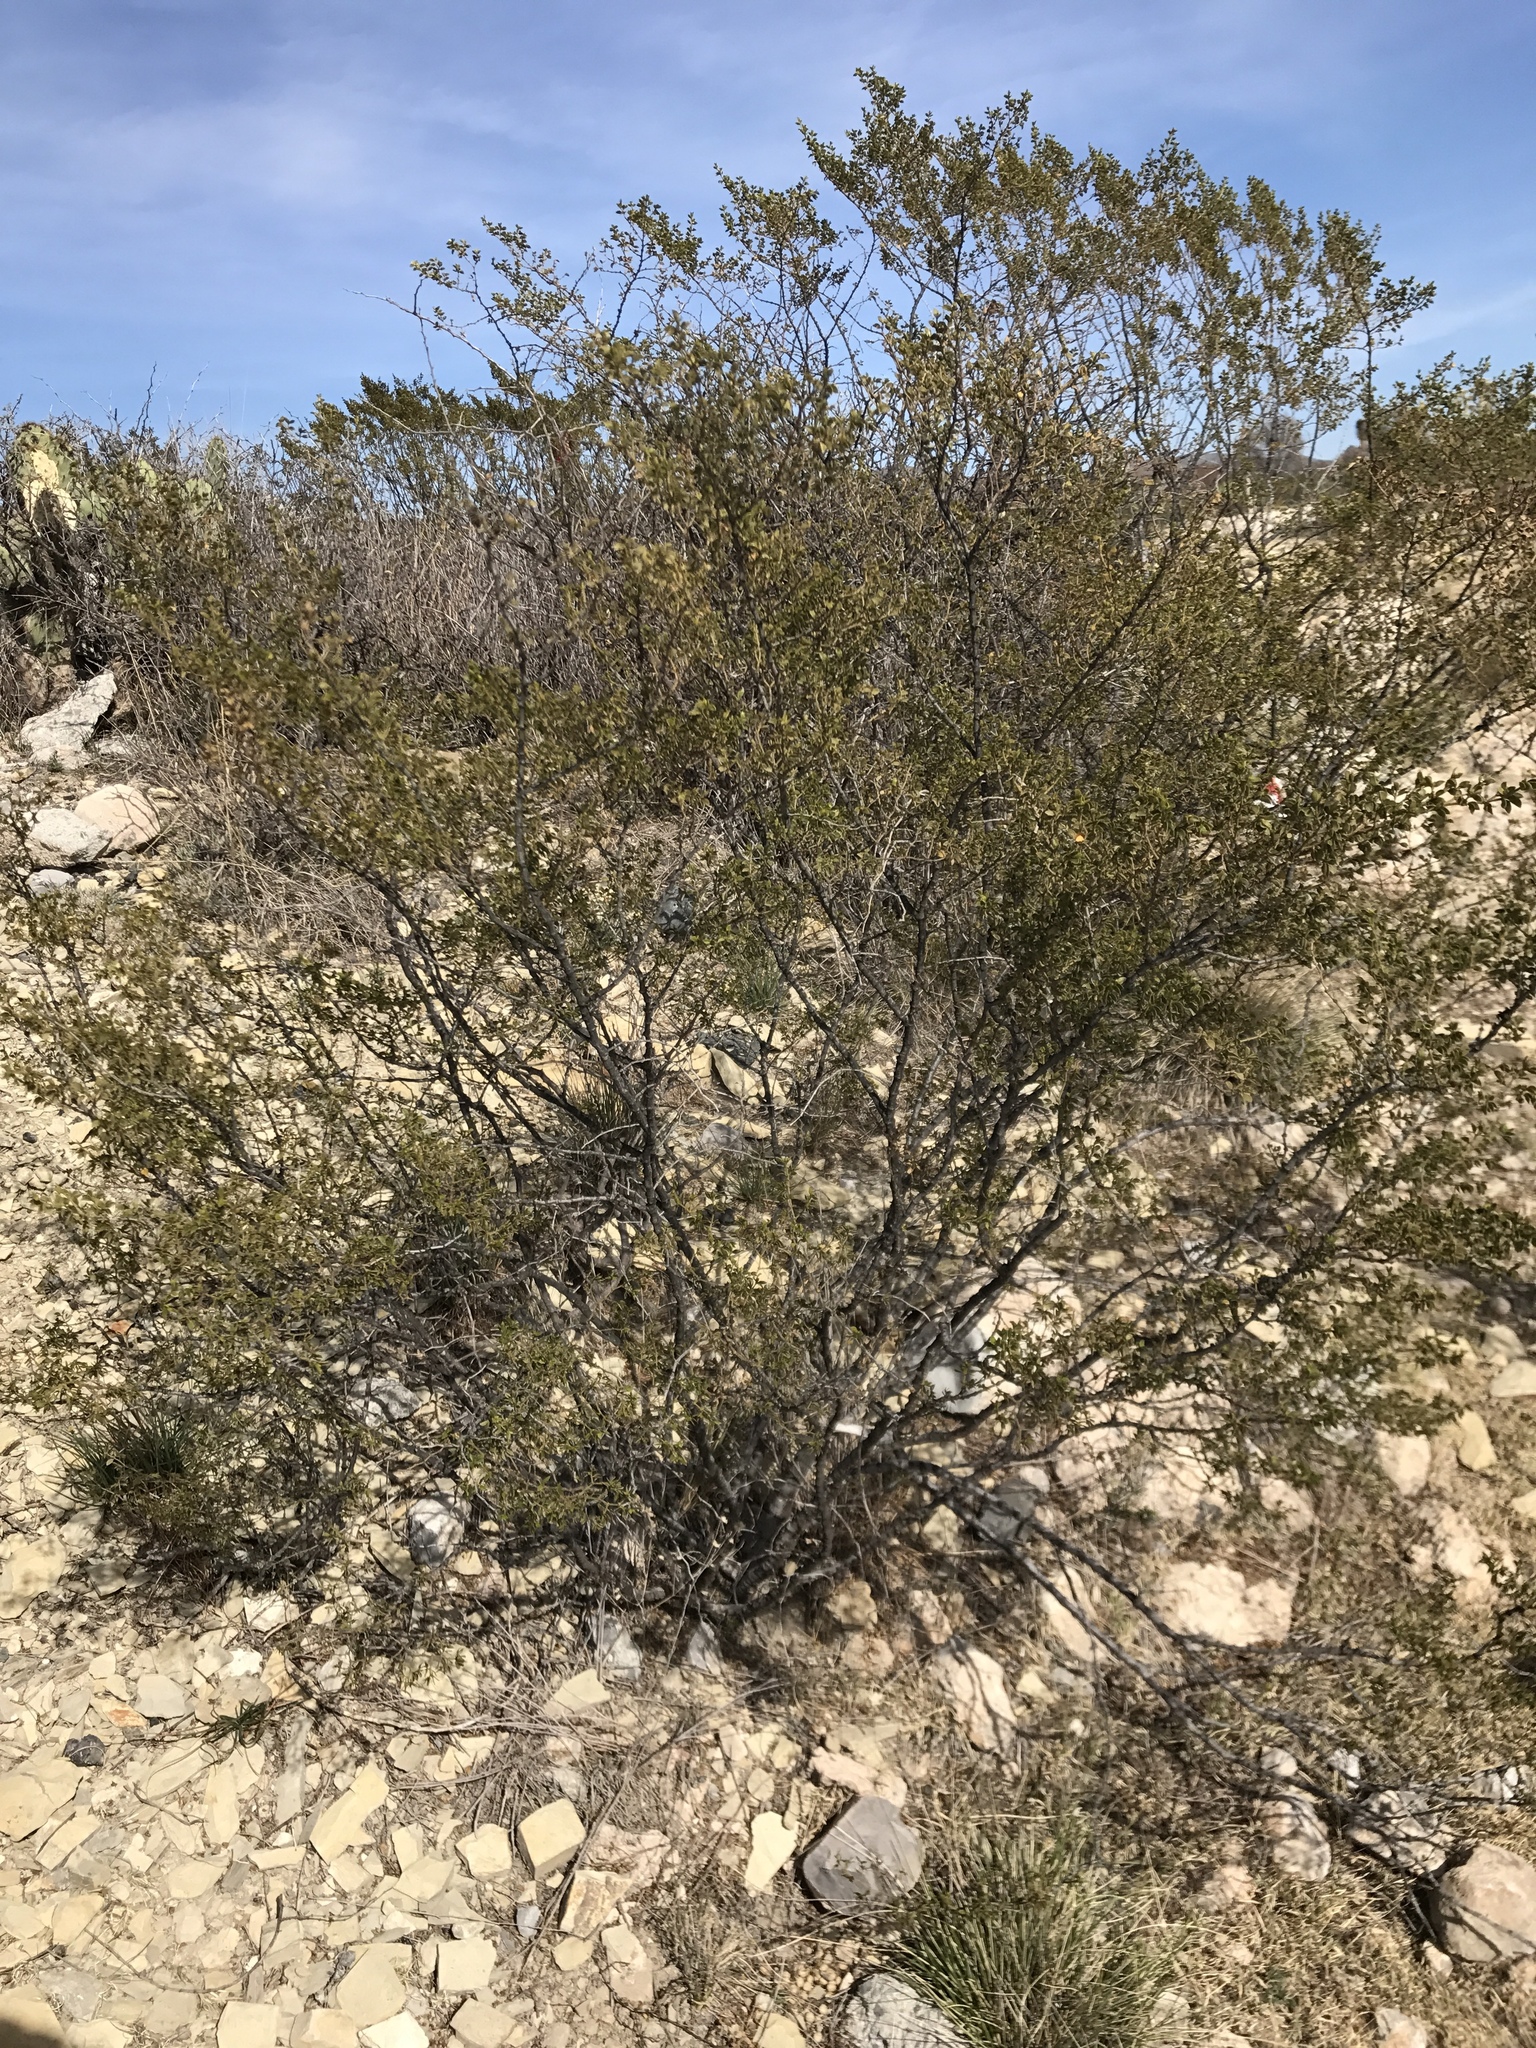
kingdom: Plantae
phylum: Tracheophyta
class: Magnoliopsida
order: Zygophyllales
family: Zygophyllaceae
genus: Larrea
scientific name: Larrea tridentata
